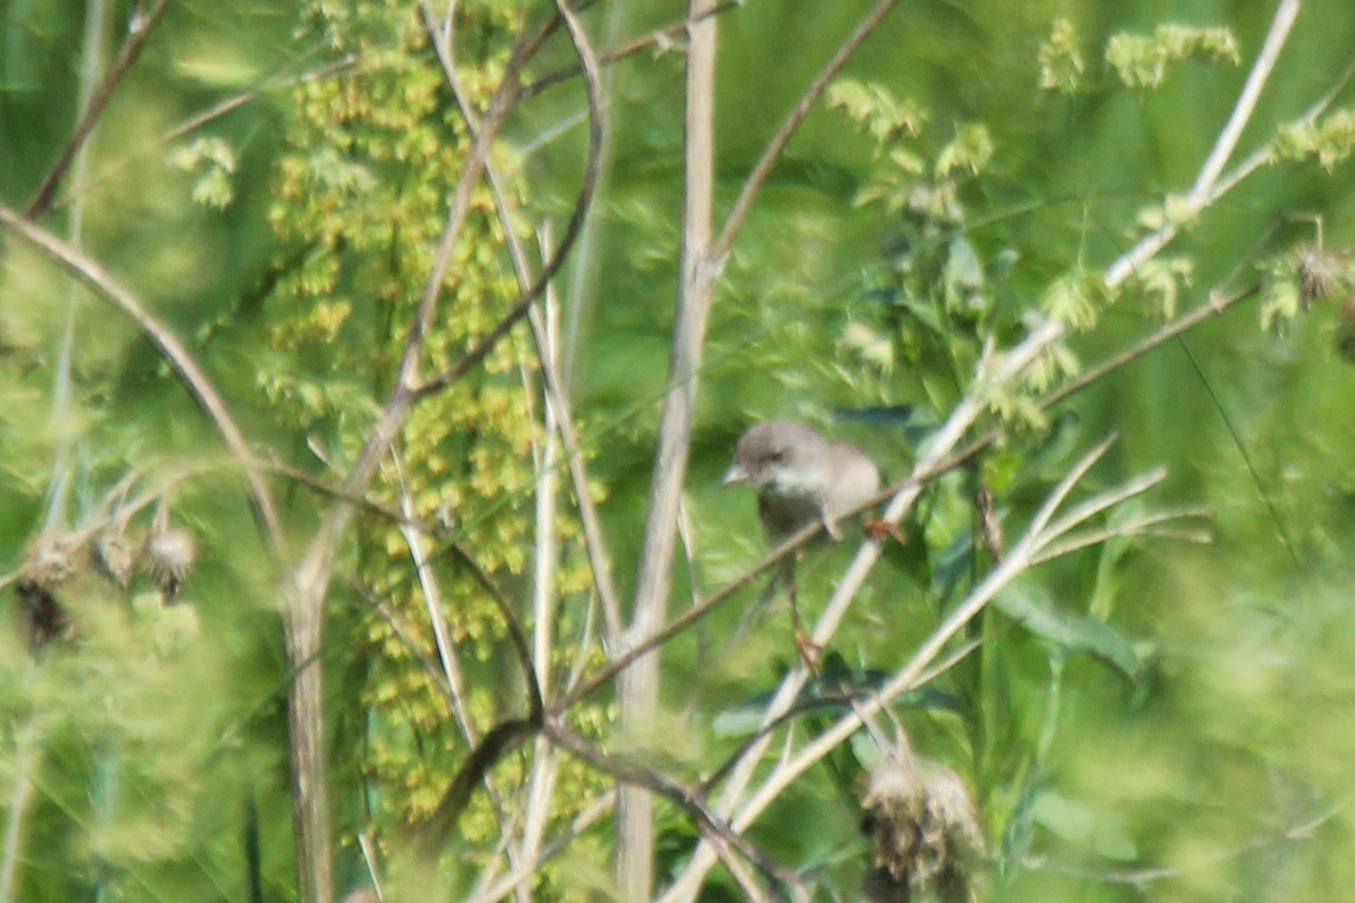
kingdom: Animalia
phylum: Chordata
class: Aves
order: Passeriformes
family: Sylviidae
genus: Sylvia
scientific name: Sylvia communis
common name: Common whitethroat
